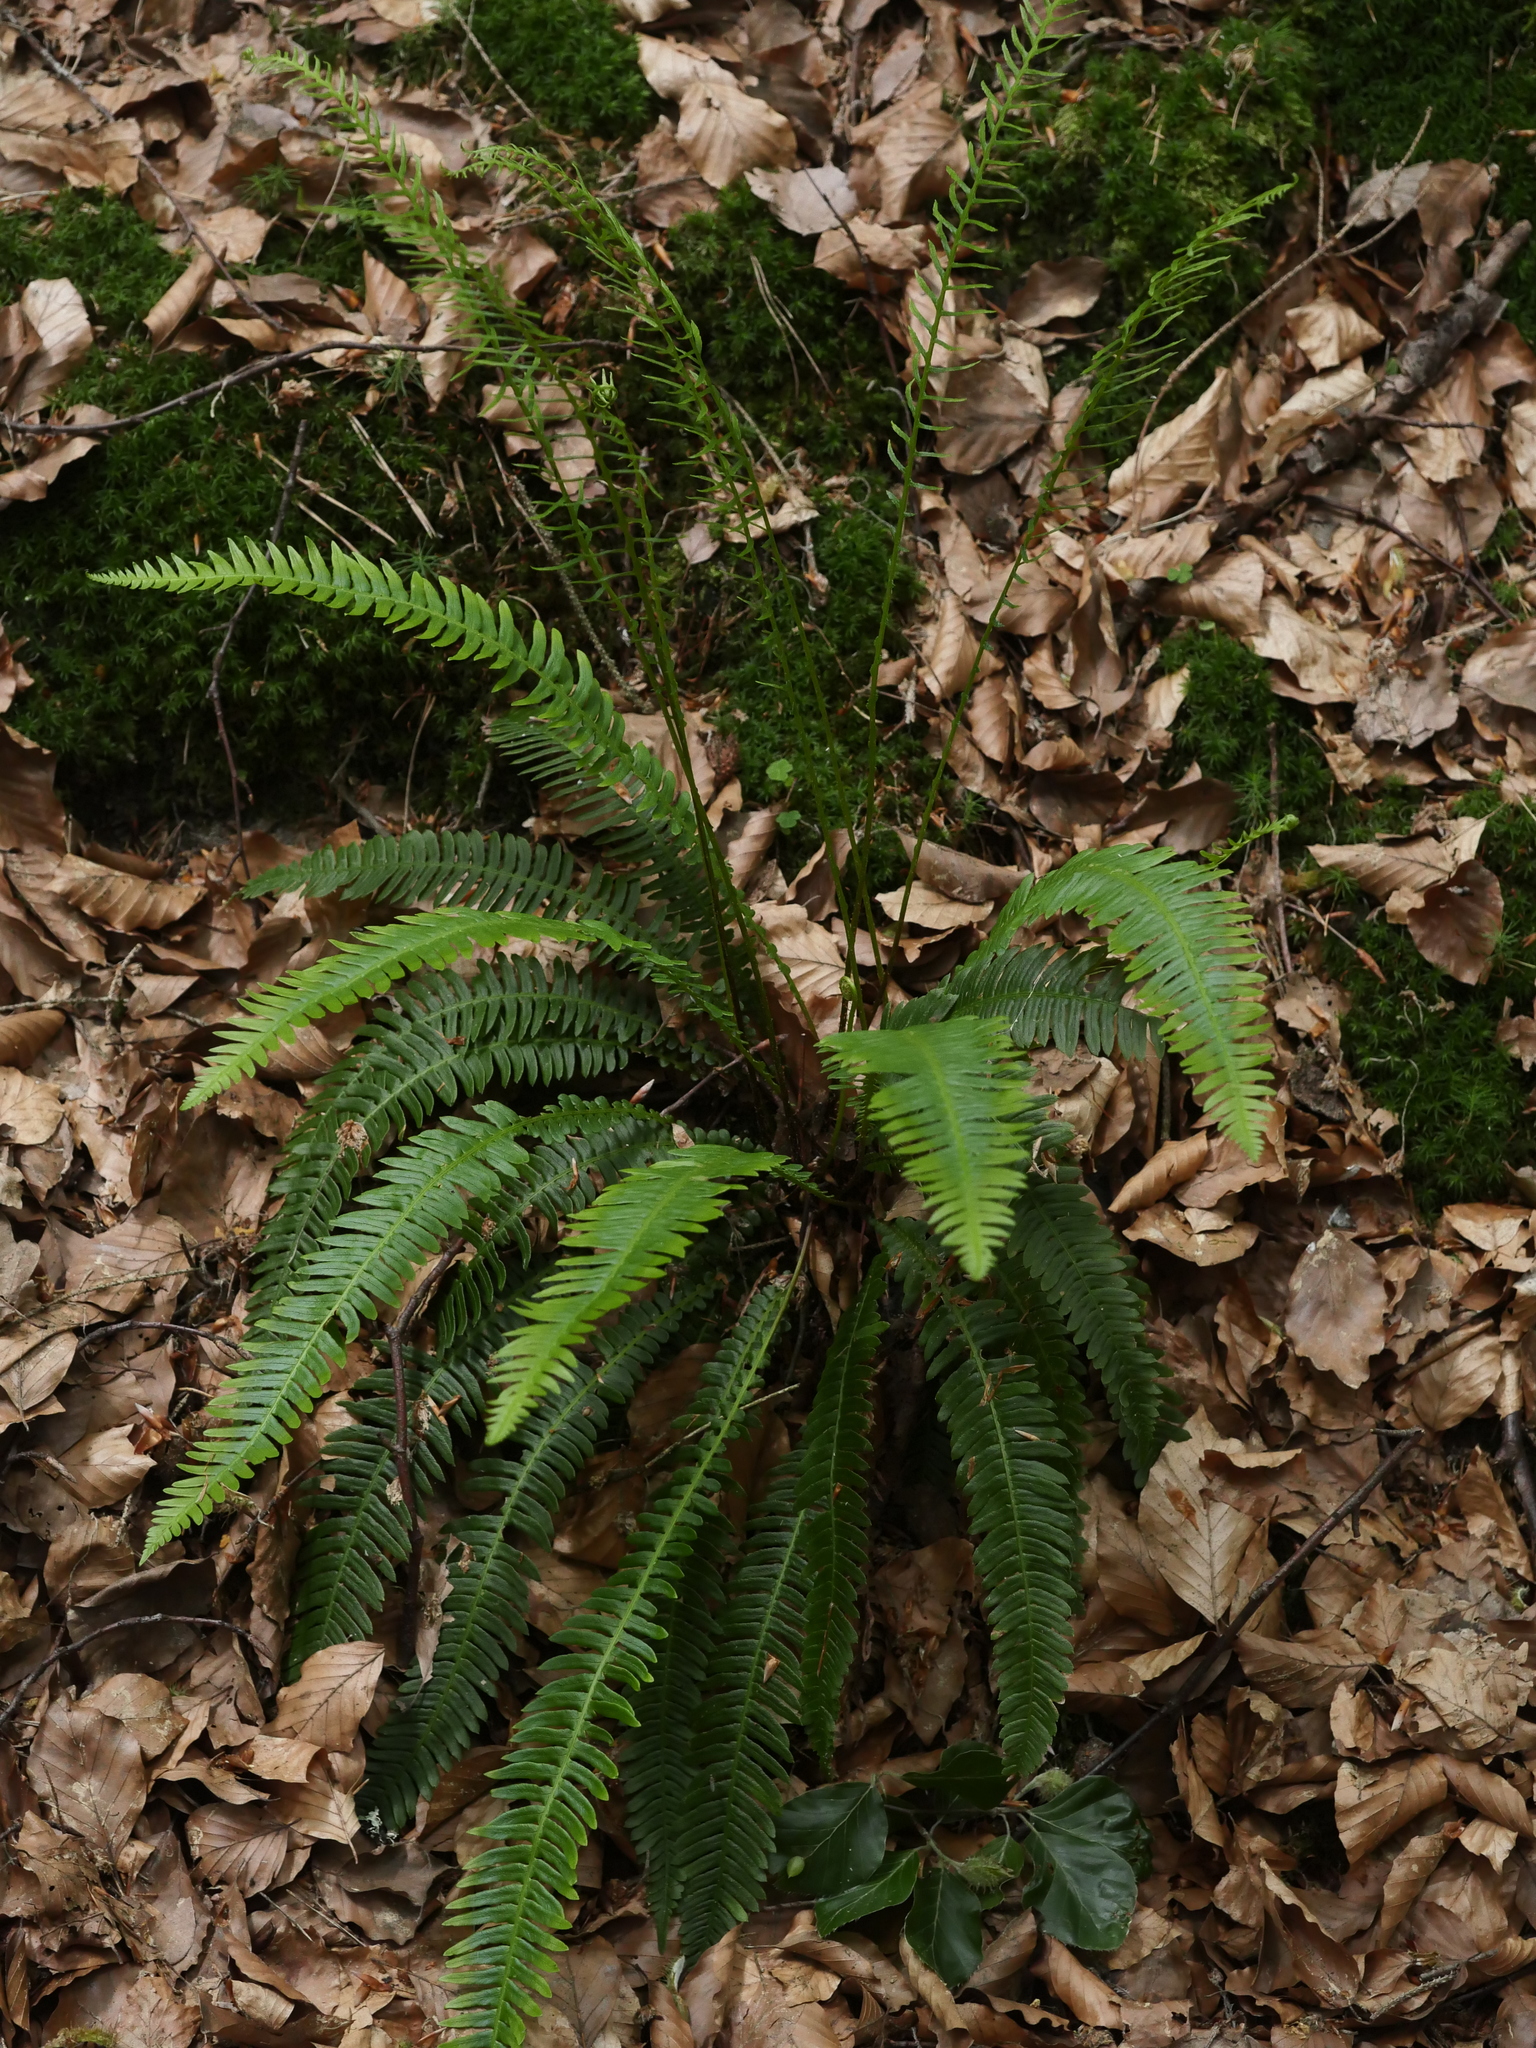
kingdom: Plantae
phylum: Tracheophyta
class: Polypodiopsida
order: Polypodiales
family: Blechnaceae
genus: Struthiopteris
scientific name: Struthiopteris spicant
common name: Deer fern
